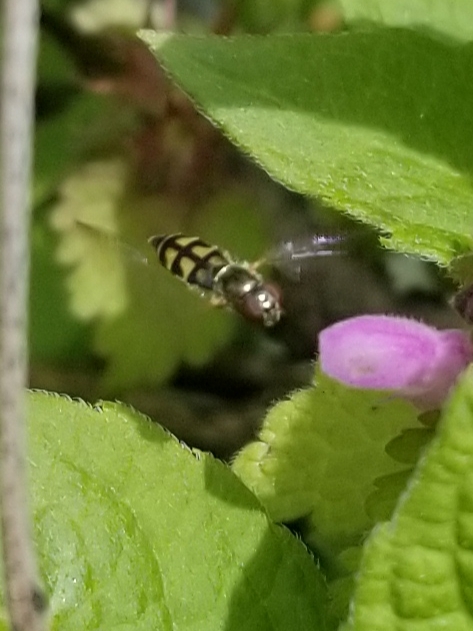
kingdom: Animalia
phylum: Arthropoda
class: Insecta
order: Diptera
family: Syrphidae
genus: Melanostoma
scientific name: Melanostoma mellina
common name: Hover fly
